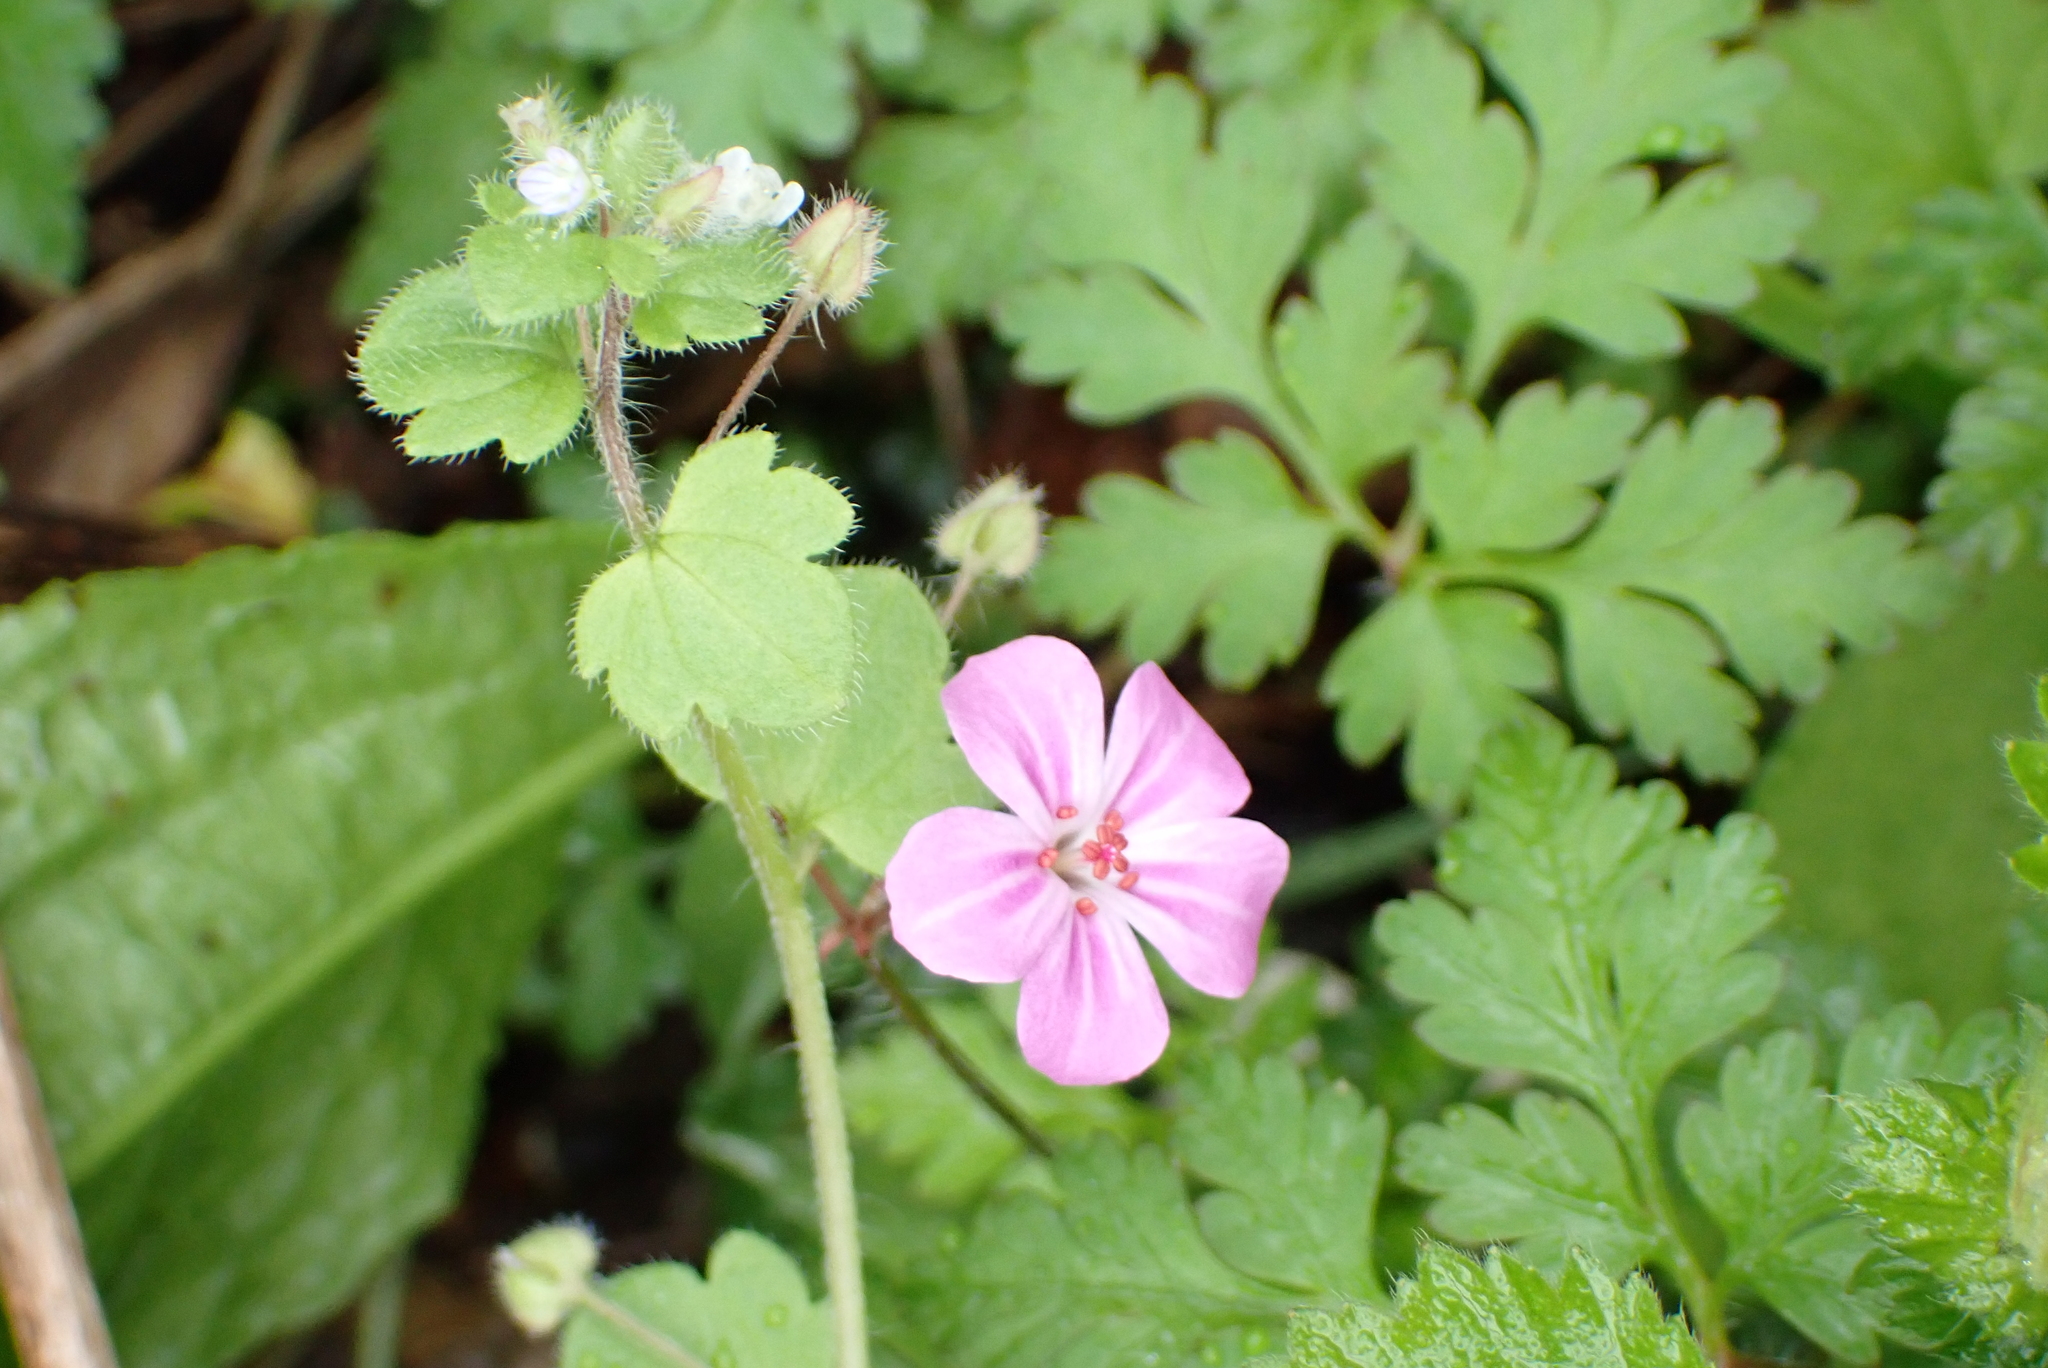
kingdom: Plantae
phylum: Tracheophyta
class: Magnoliopsida
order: Geraniales
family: Geraniaceae
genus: Geranium
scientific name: Geranium robertianum
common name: Herb-robert
